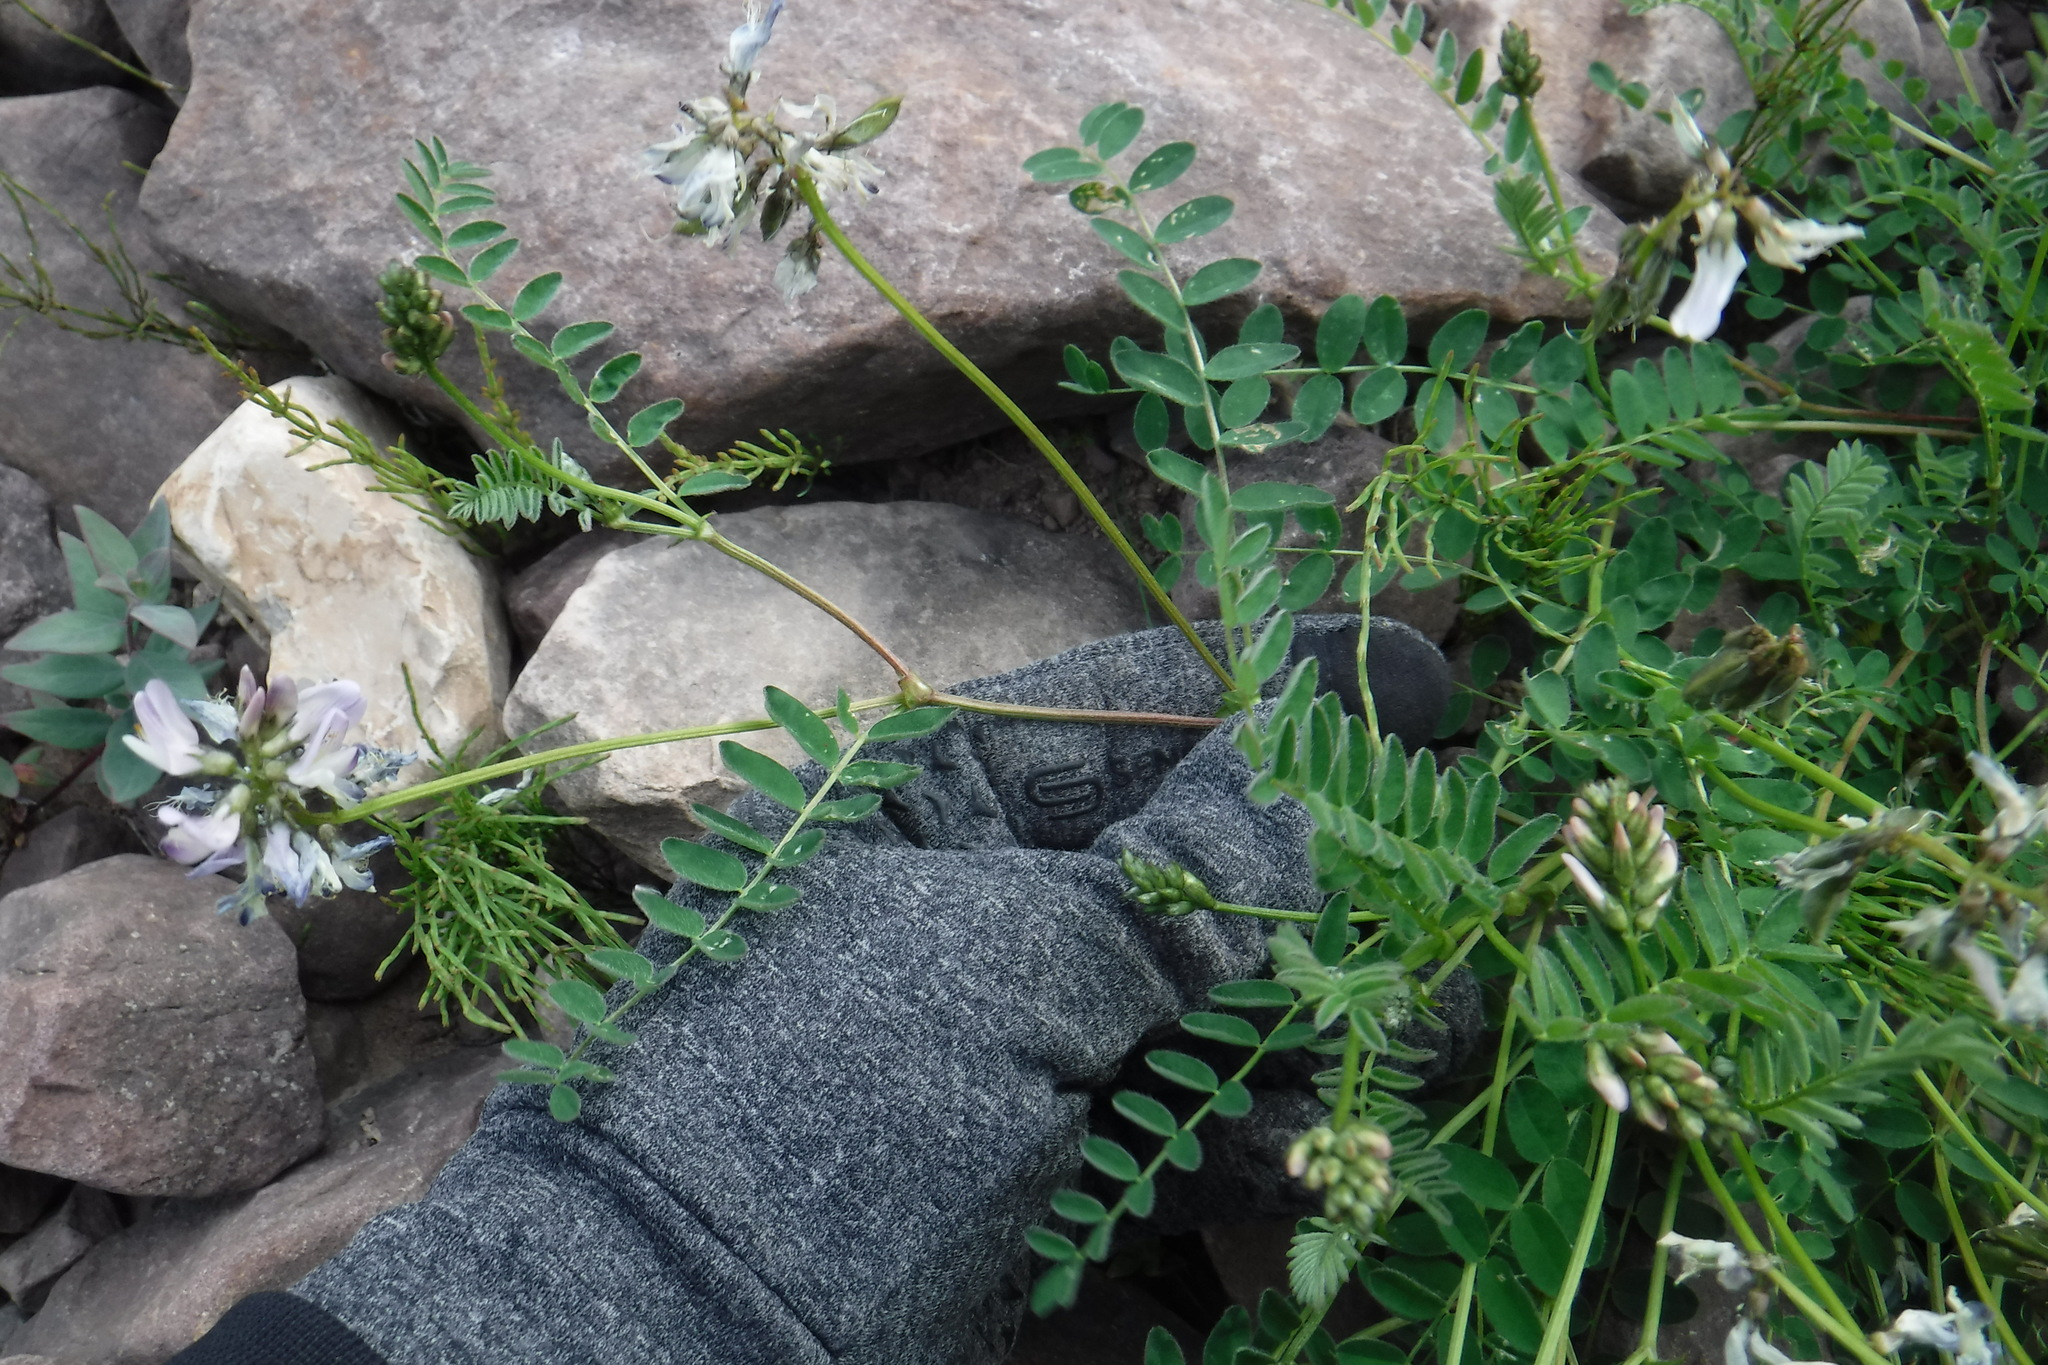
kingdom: Plantae
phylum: Tracheophyta
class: Magnoliopsida
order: Fabales
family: Fabaceae
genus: Astragalus
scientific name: Astragalus alpinus
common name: Alpine milk-vetch
